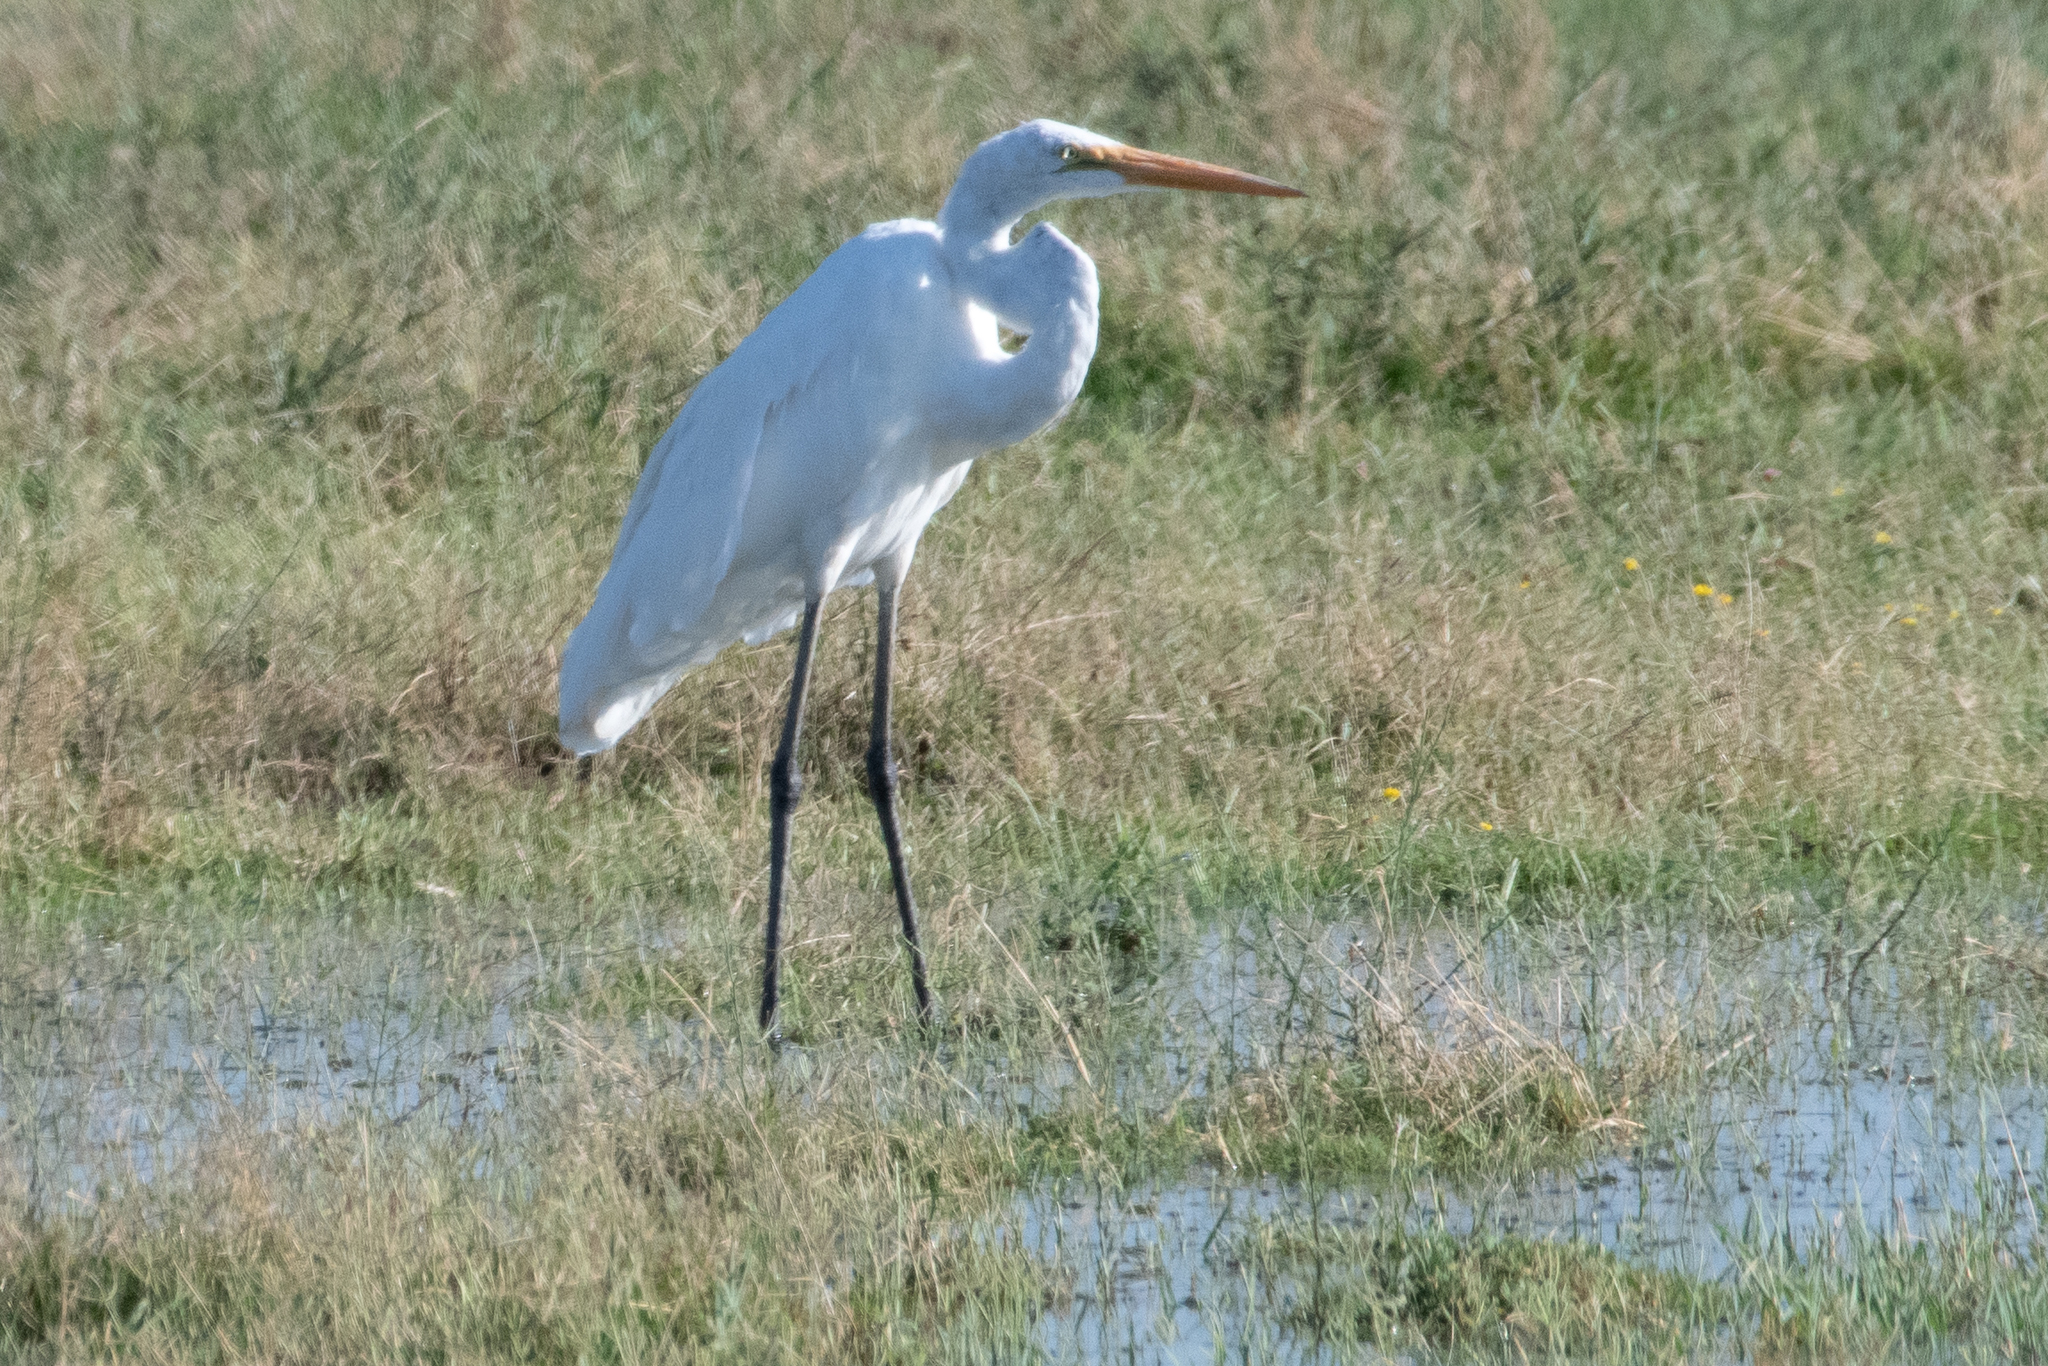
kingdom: Animalia
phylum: Chordata
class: Aves
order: Pelecaniformes
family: Ardeidae
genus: Ardea
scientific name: Ardea alba
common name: Great egret
